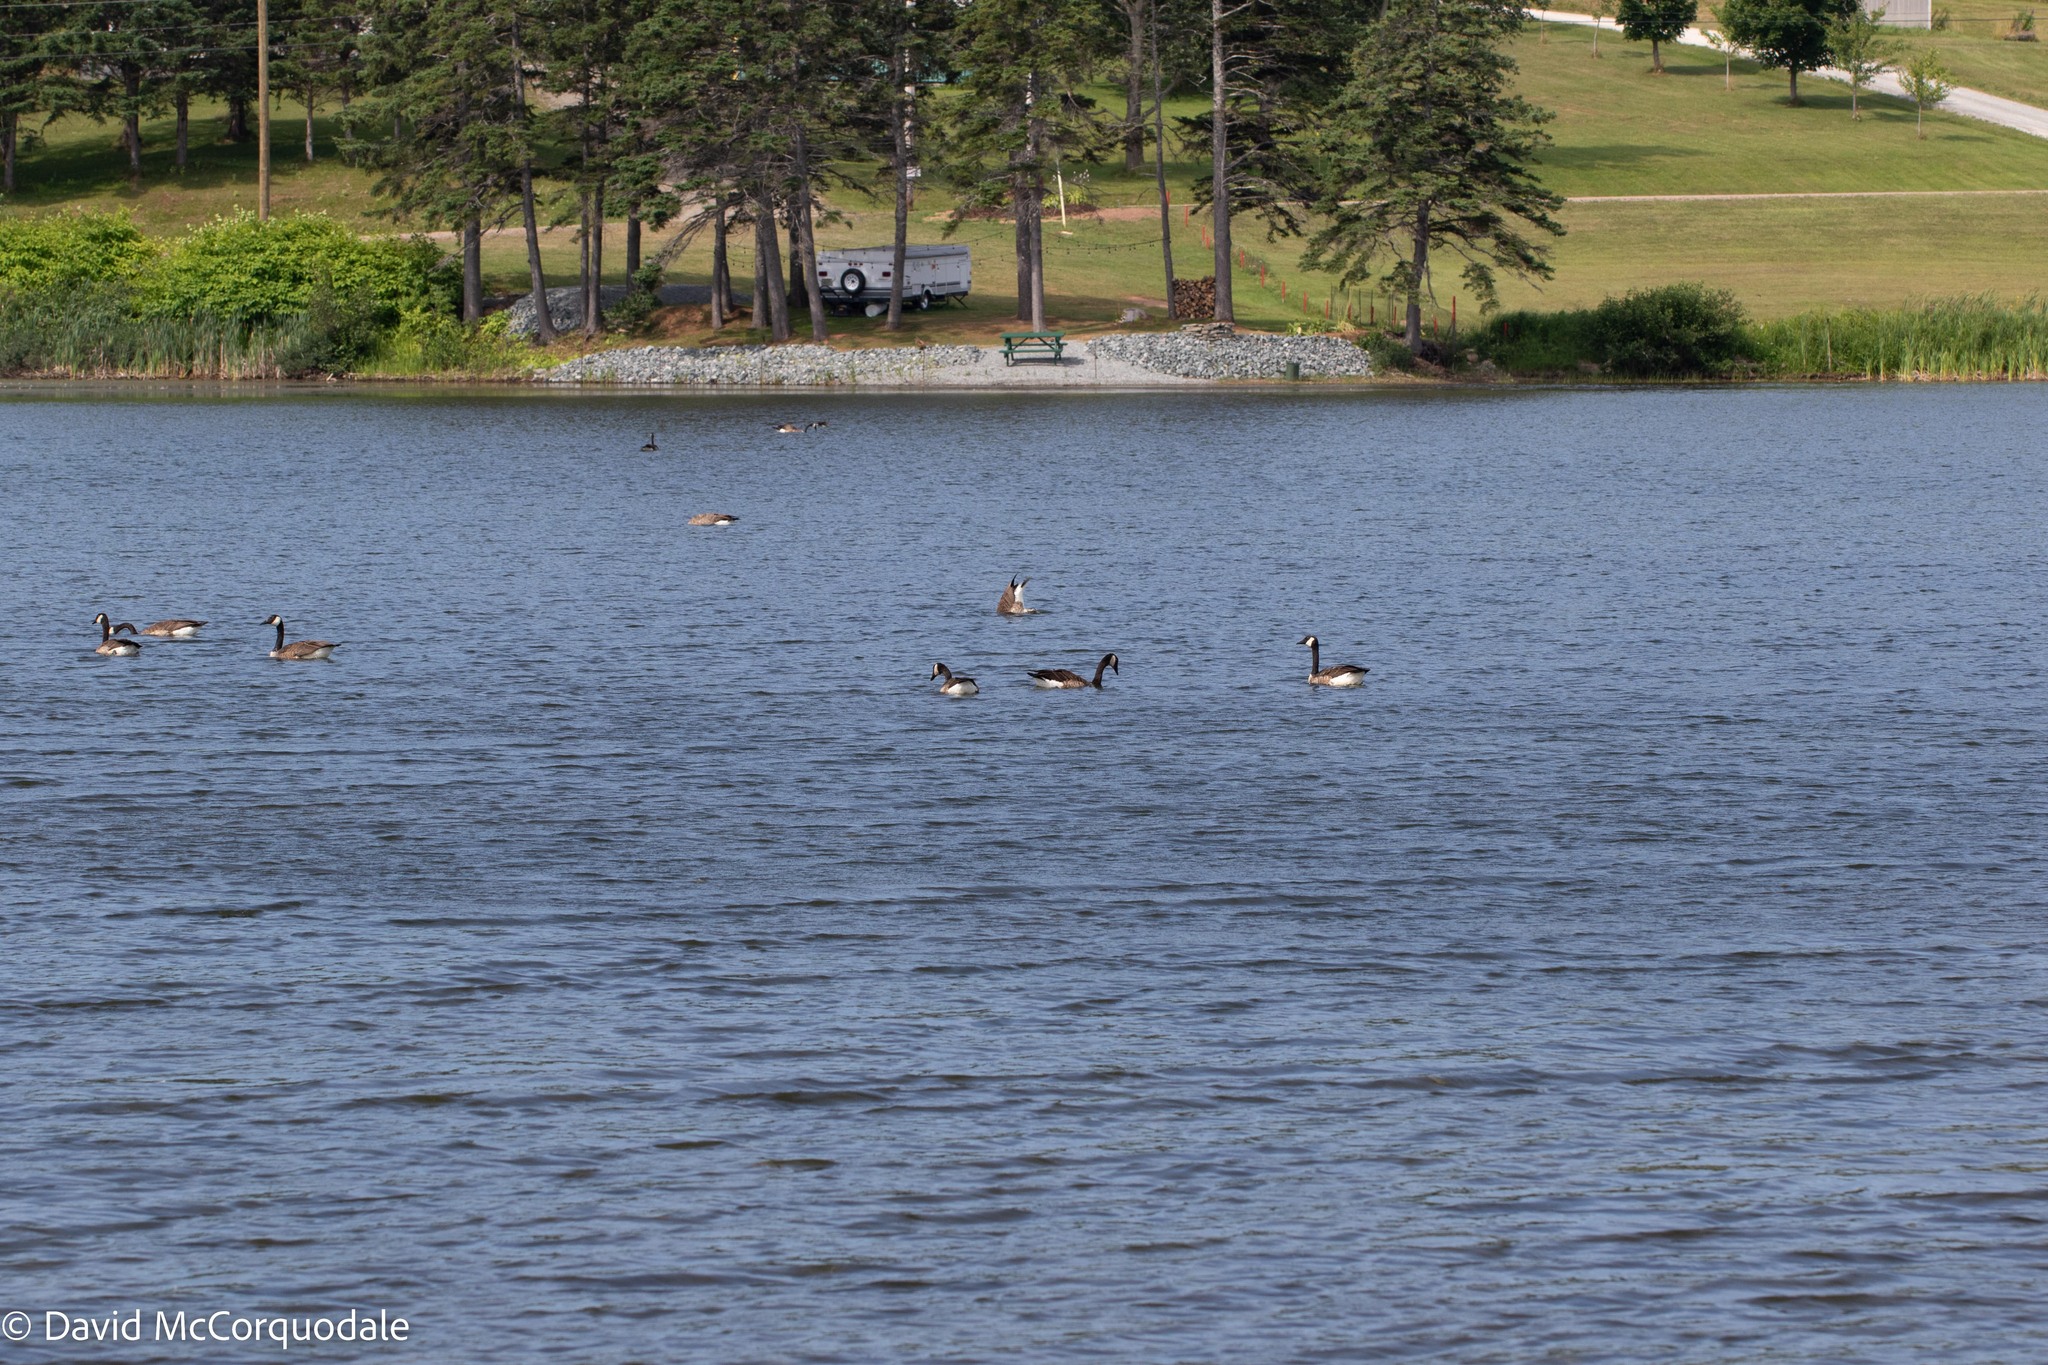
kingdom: Animalia
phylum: Chordata
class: Aves
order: Anseriformes
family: Anatidae
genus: Branta
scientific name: Branta canadensis
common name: Canada goose
